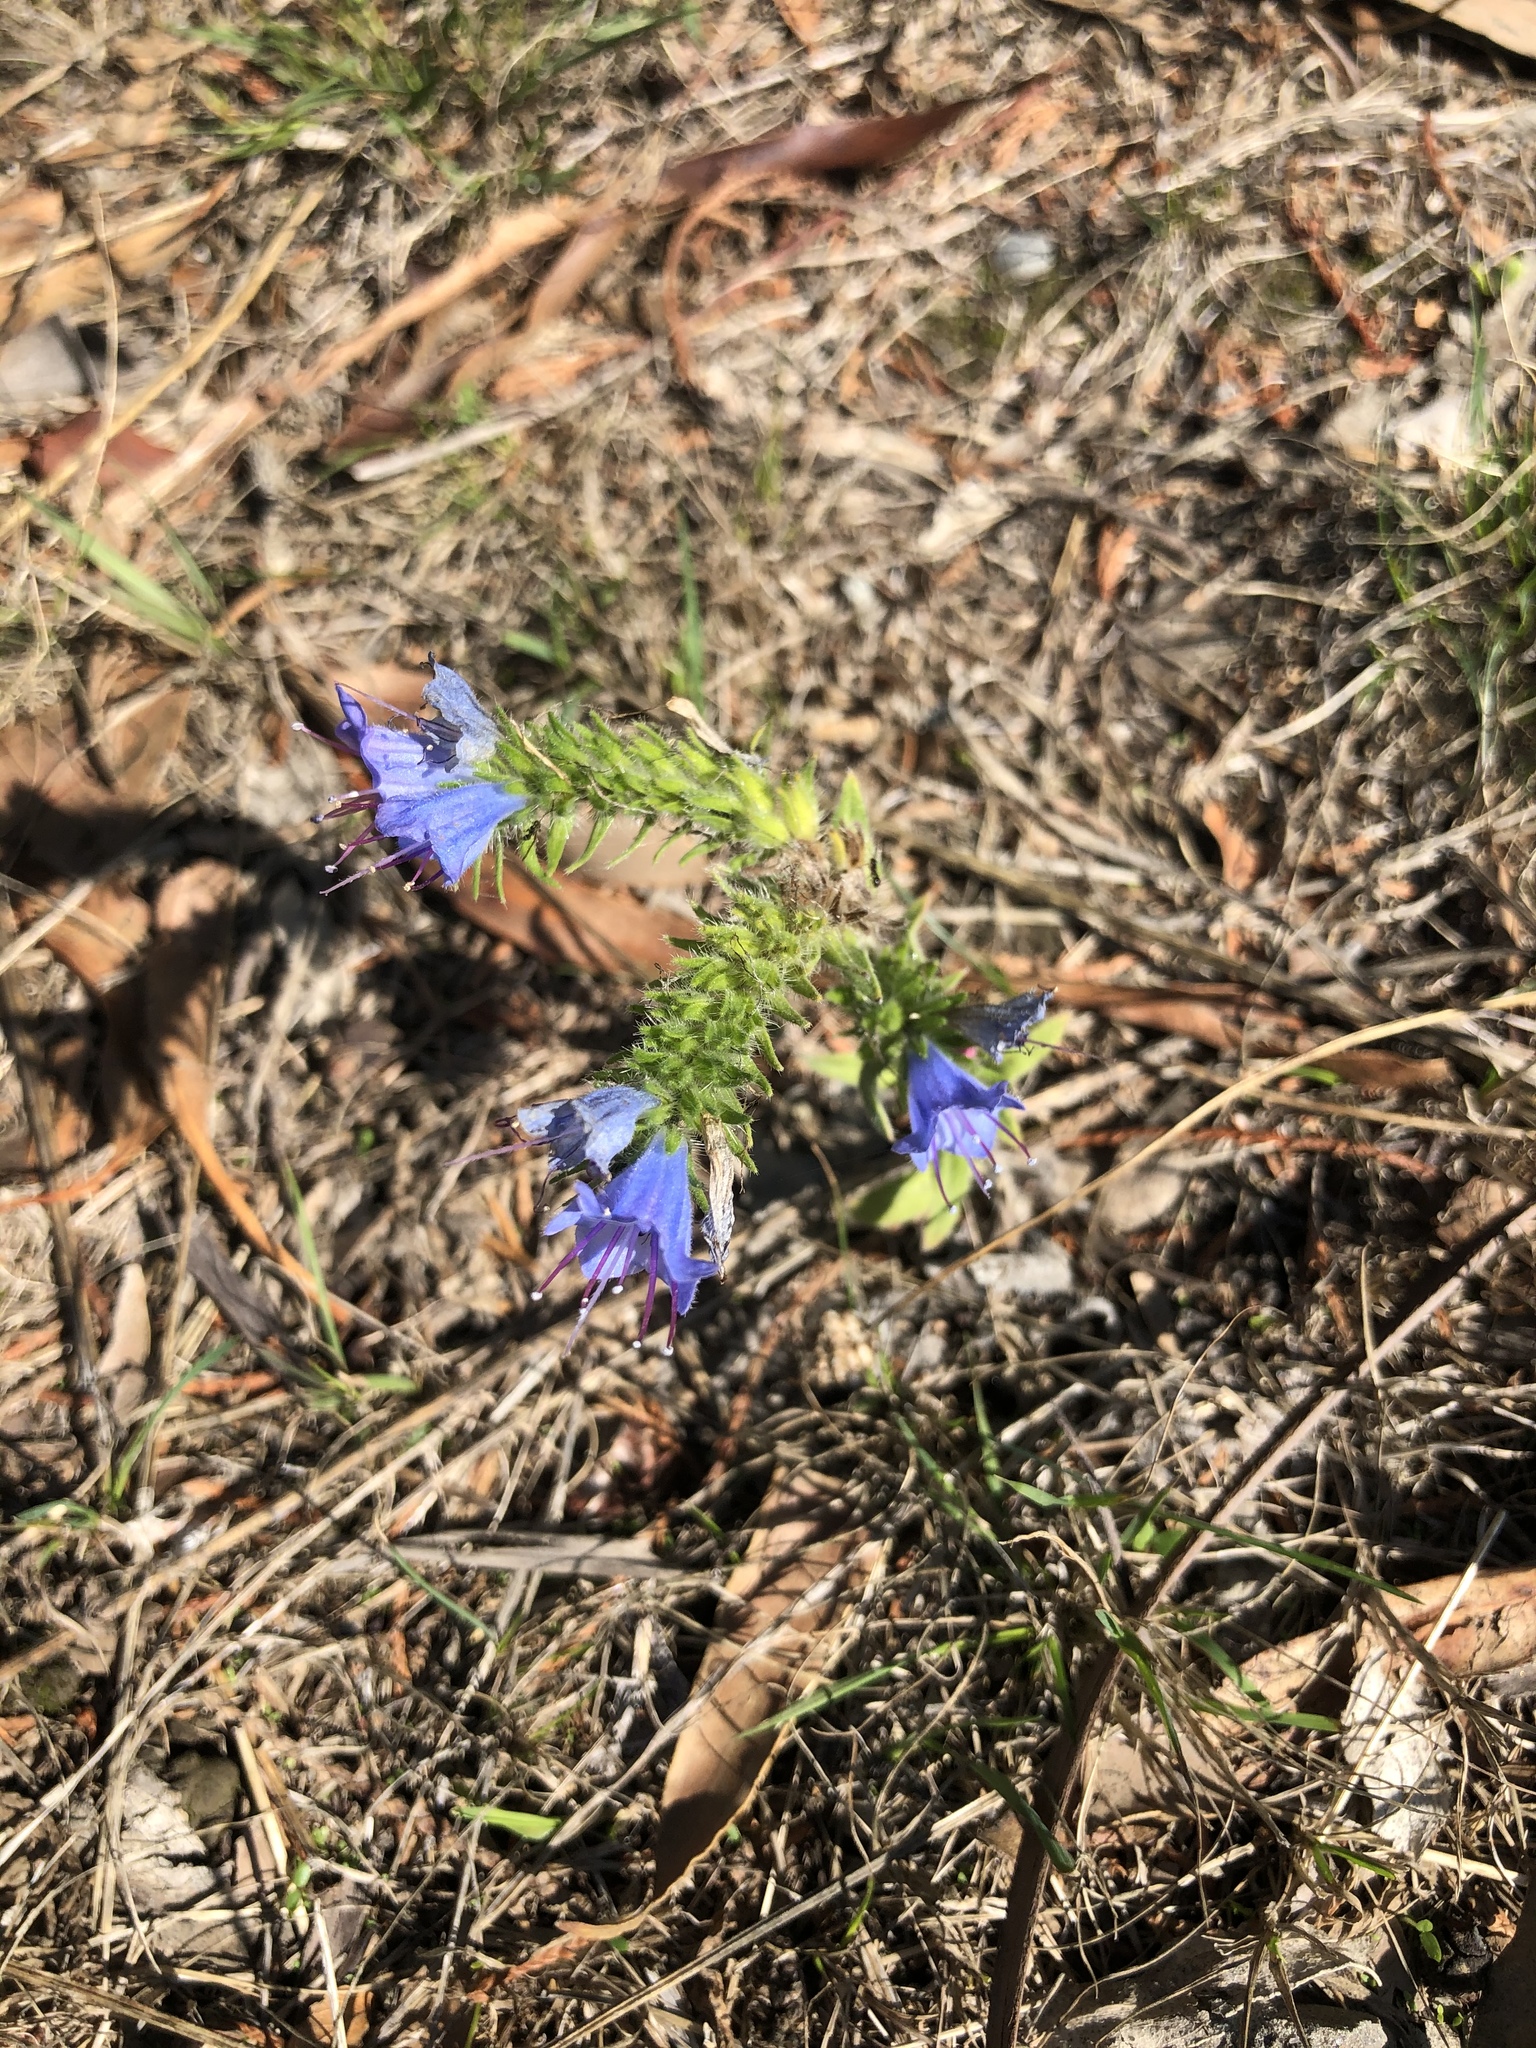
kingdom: Plantae
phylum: Tracheophyta
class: Magnoliopsida
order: Boraginales
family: Boraginaceae
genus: Echium
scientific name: Echium vulgare
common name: Common viper's bugloss
